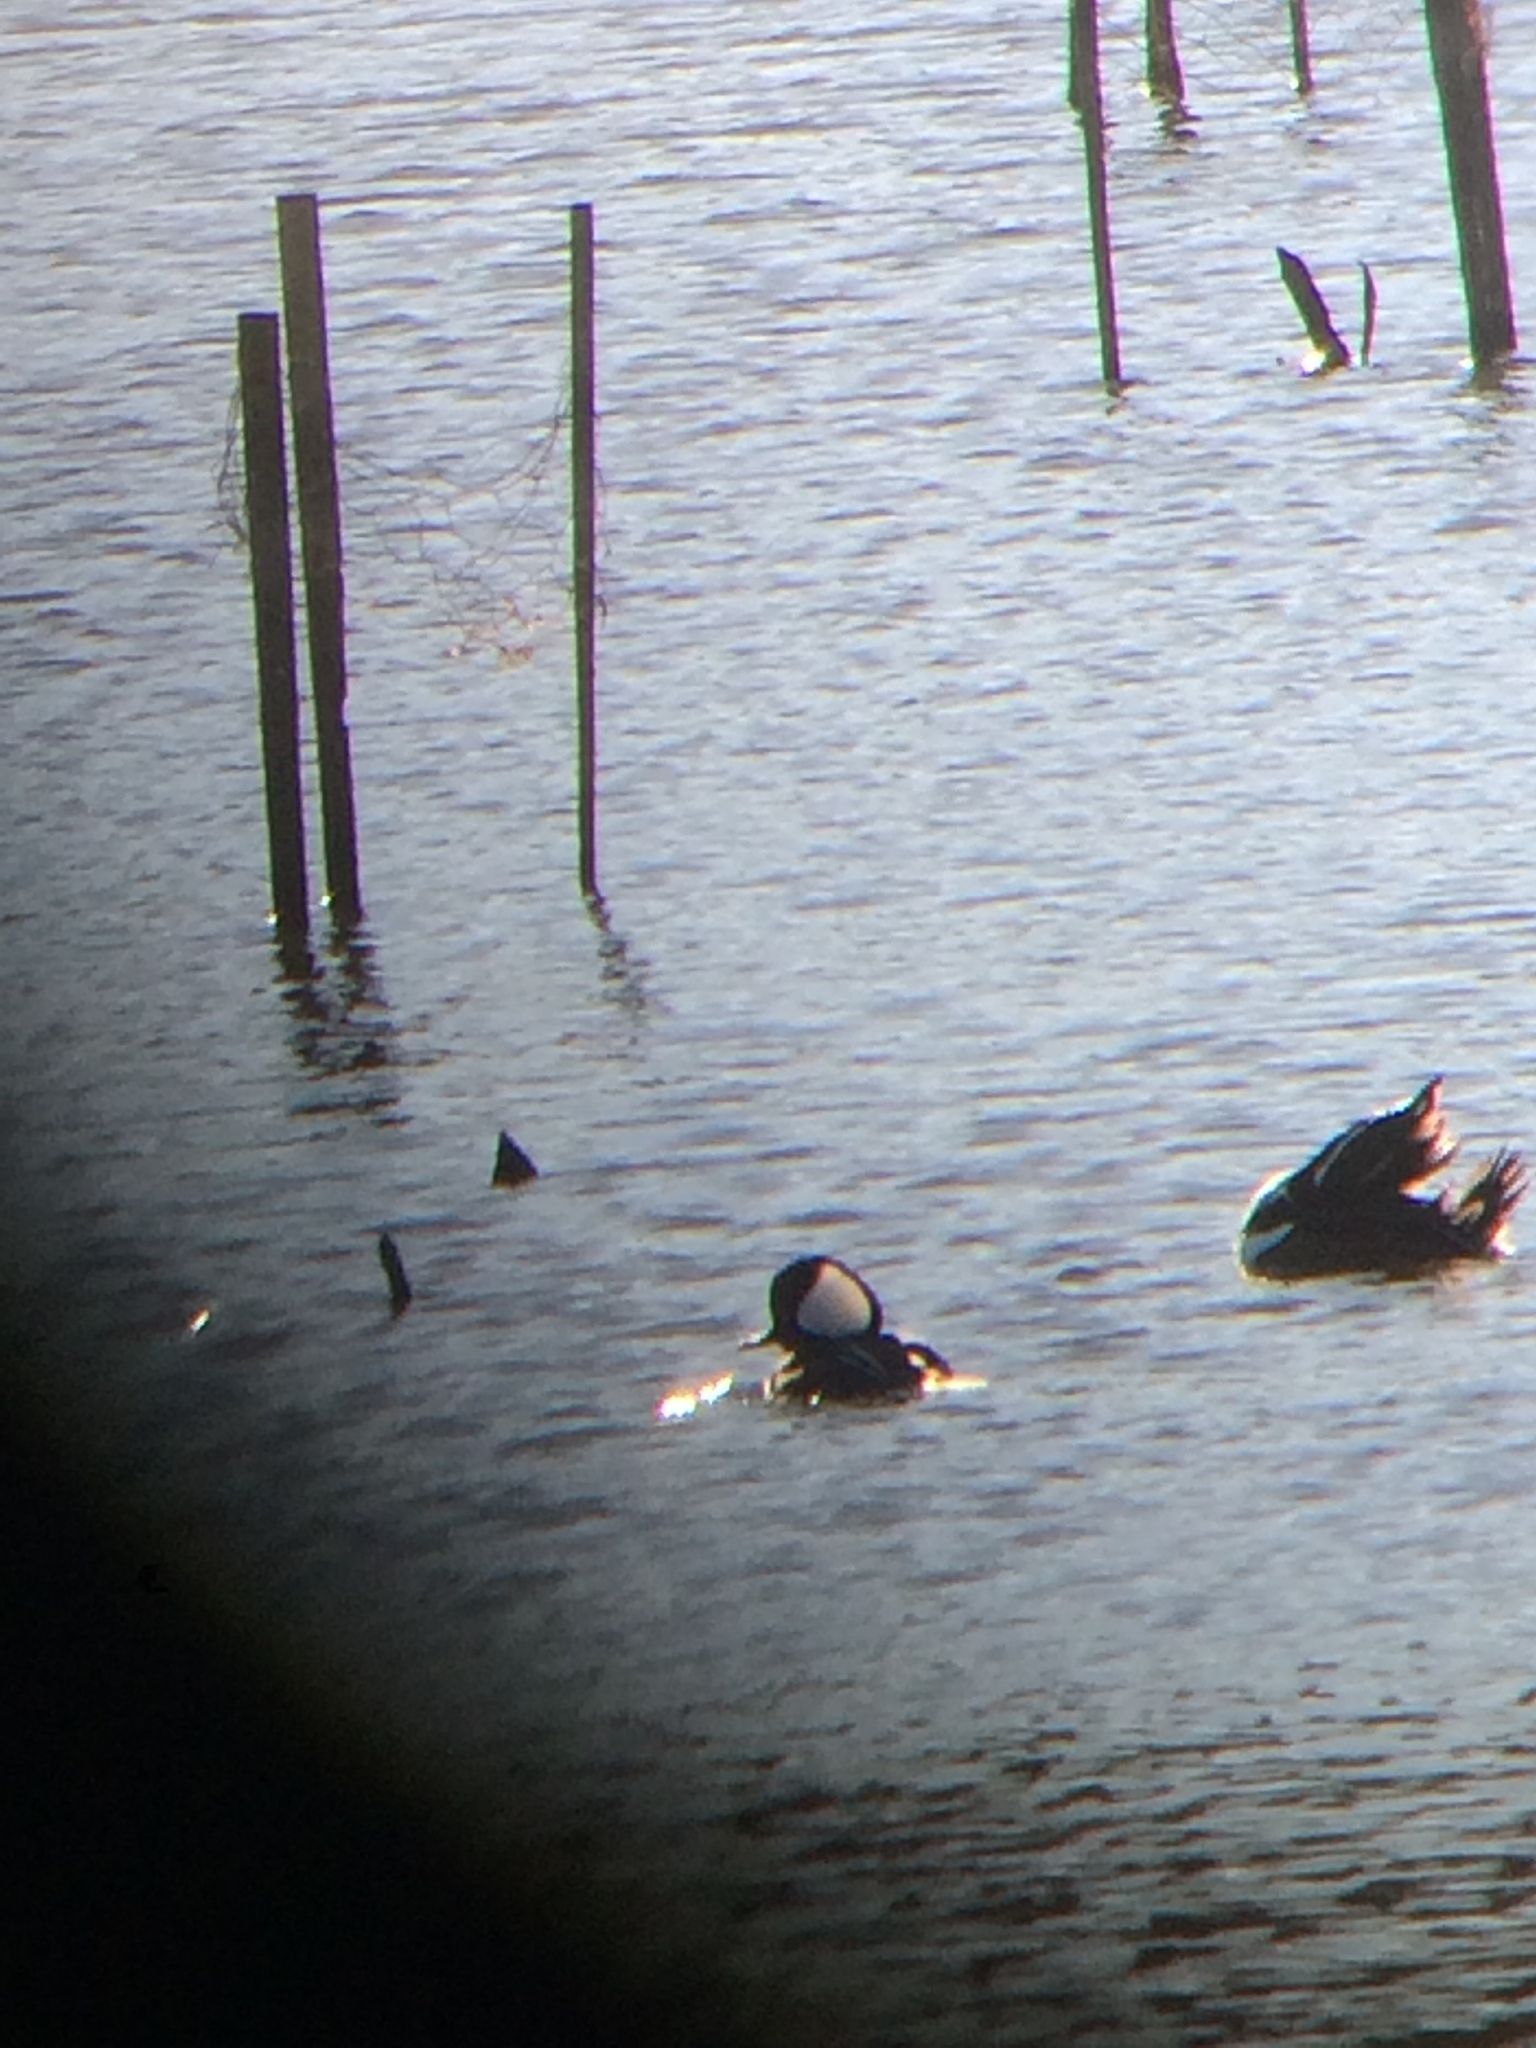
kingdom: Animalia
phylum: Chordata
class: Aves
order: Anseriformes
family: Anatidae
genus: Lophodytes
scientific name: Lophodytes cucullatus
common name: Hooded merganser
